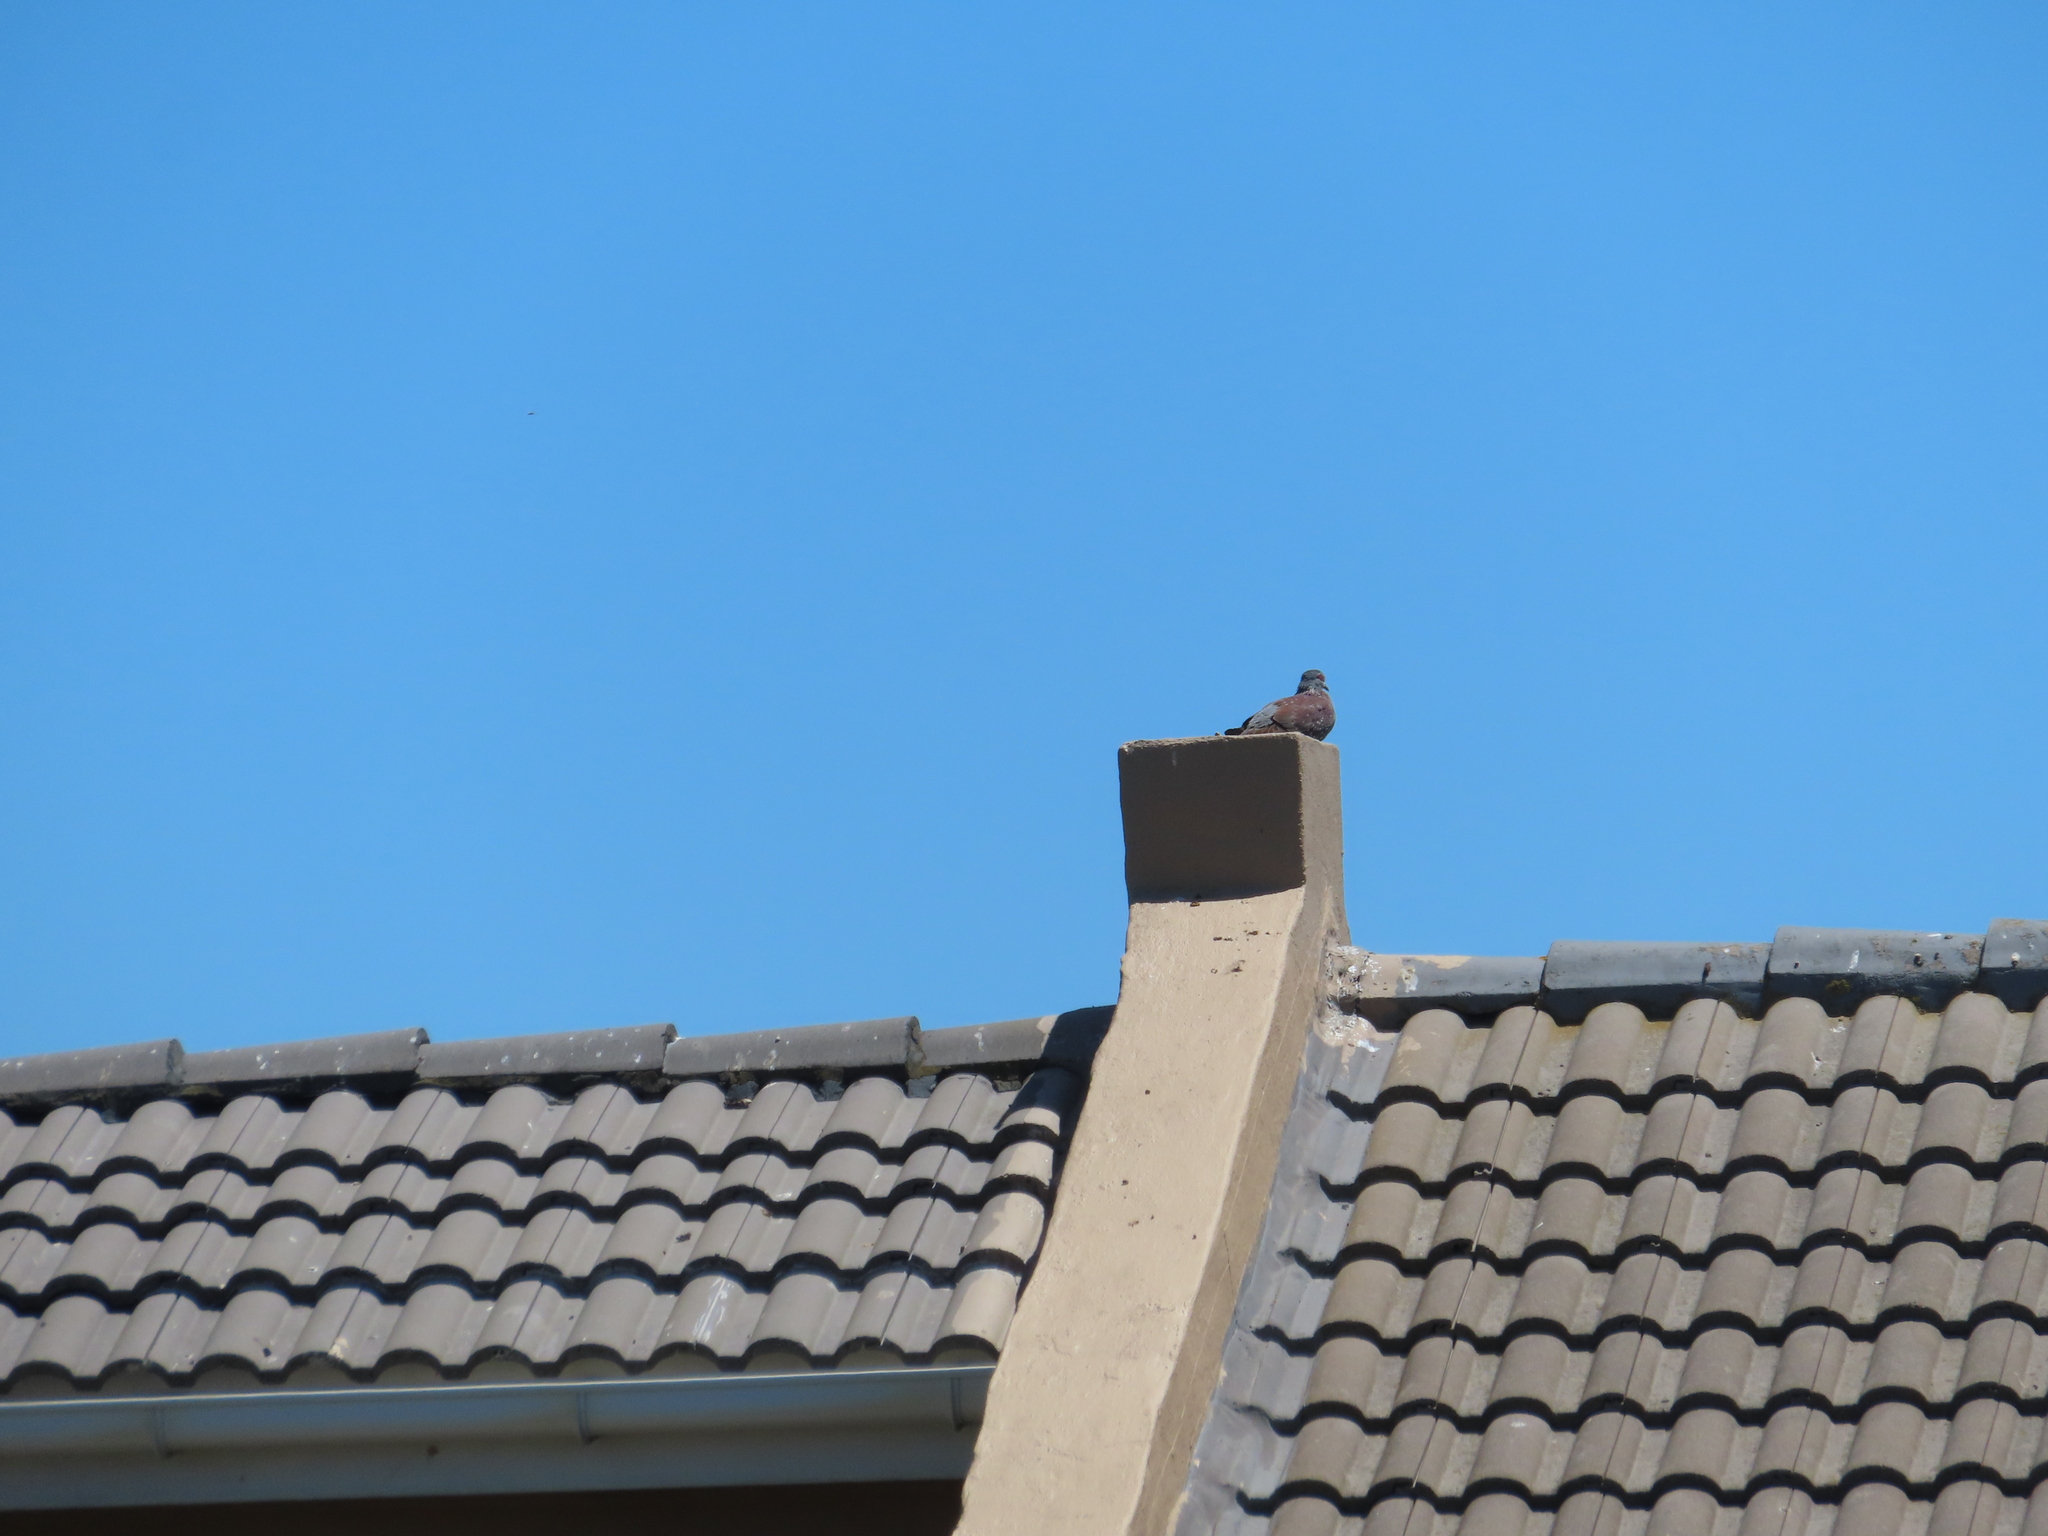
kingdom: Animalia
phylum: Chordata
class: Aves
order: Columbiformes
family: Columbidae
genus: Columba
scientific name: Columba guinea
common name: Speckled pigeon
